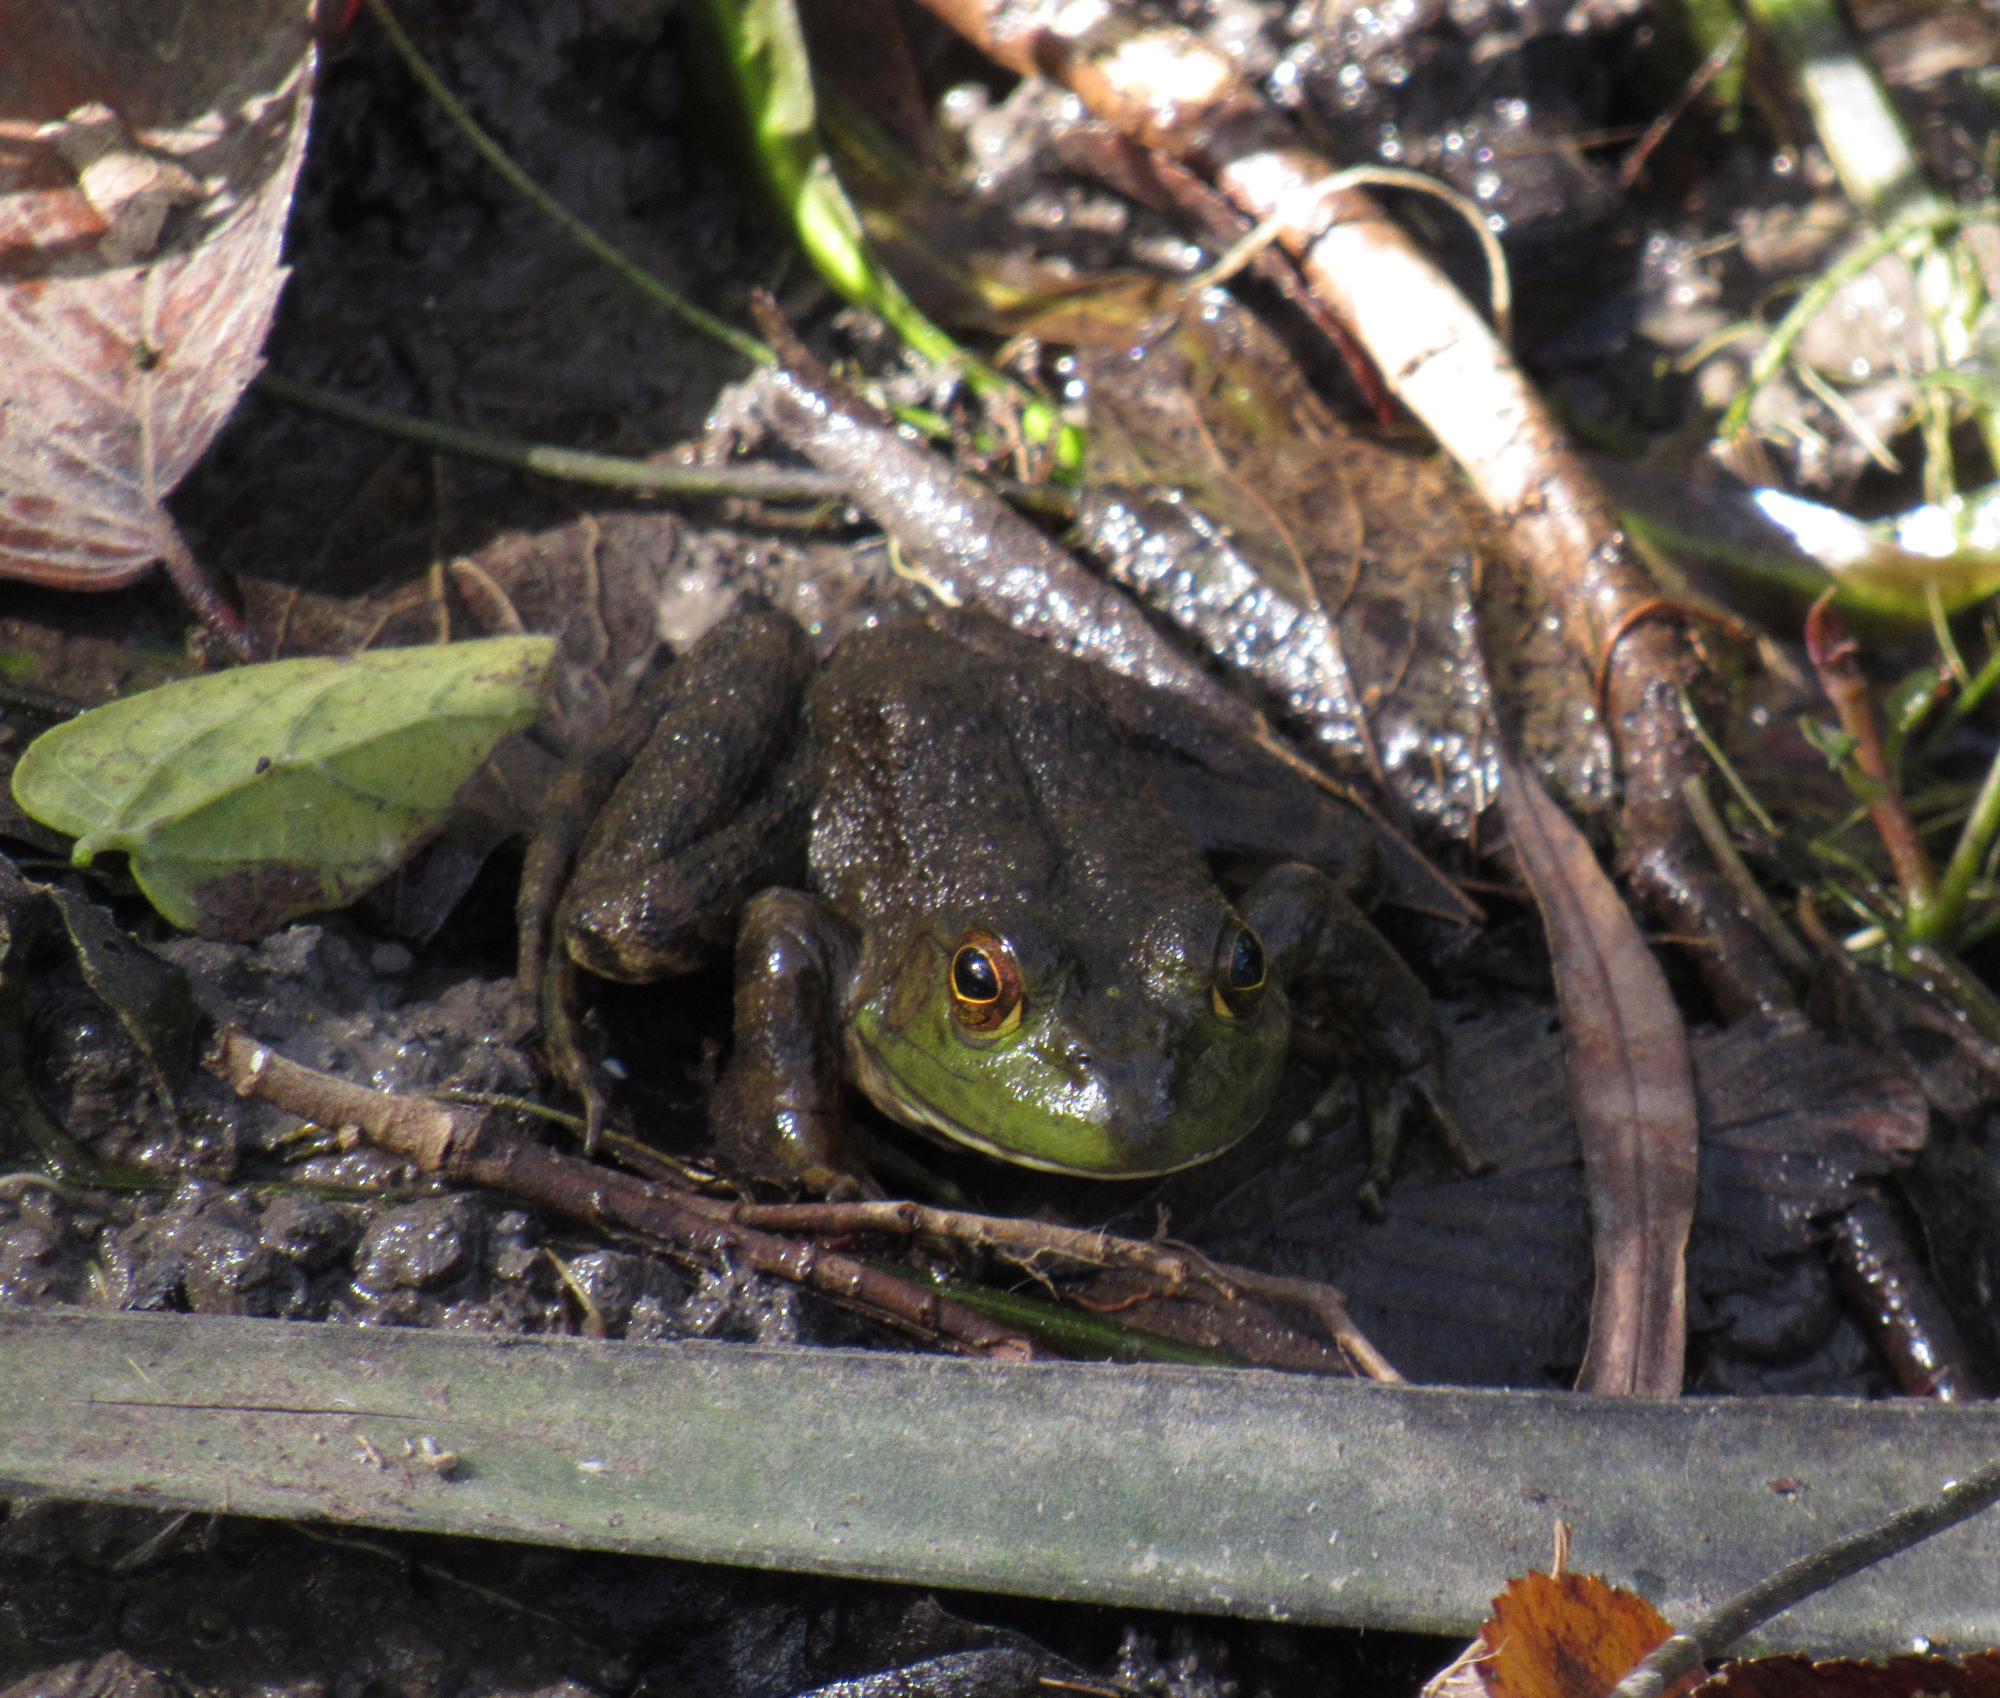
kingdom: Animalia
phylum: Chordata
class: Amphibia
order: Anura
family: Ranidae
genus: Lithobates
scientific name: Lithobates catesbeianus
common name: American bullfrog
